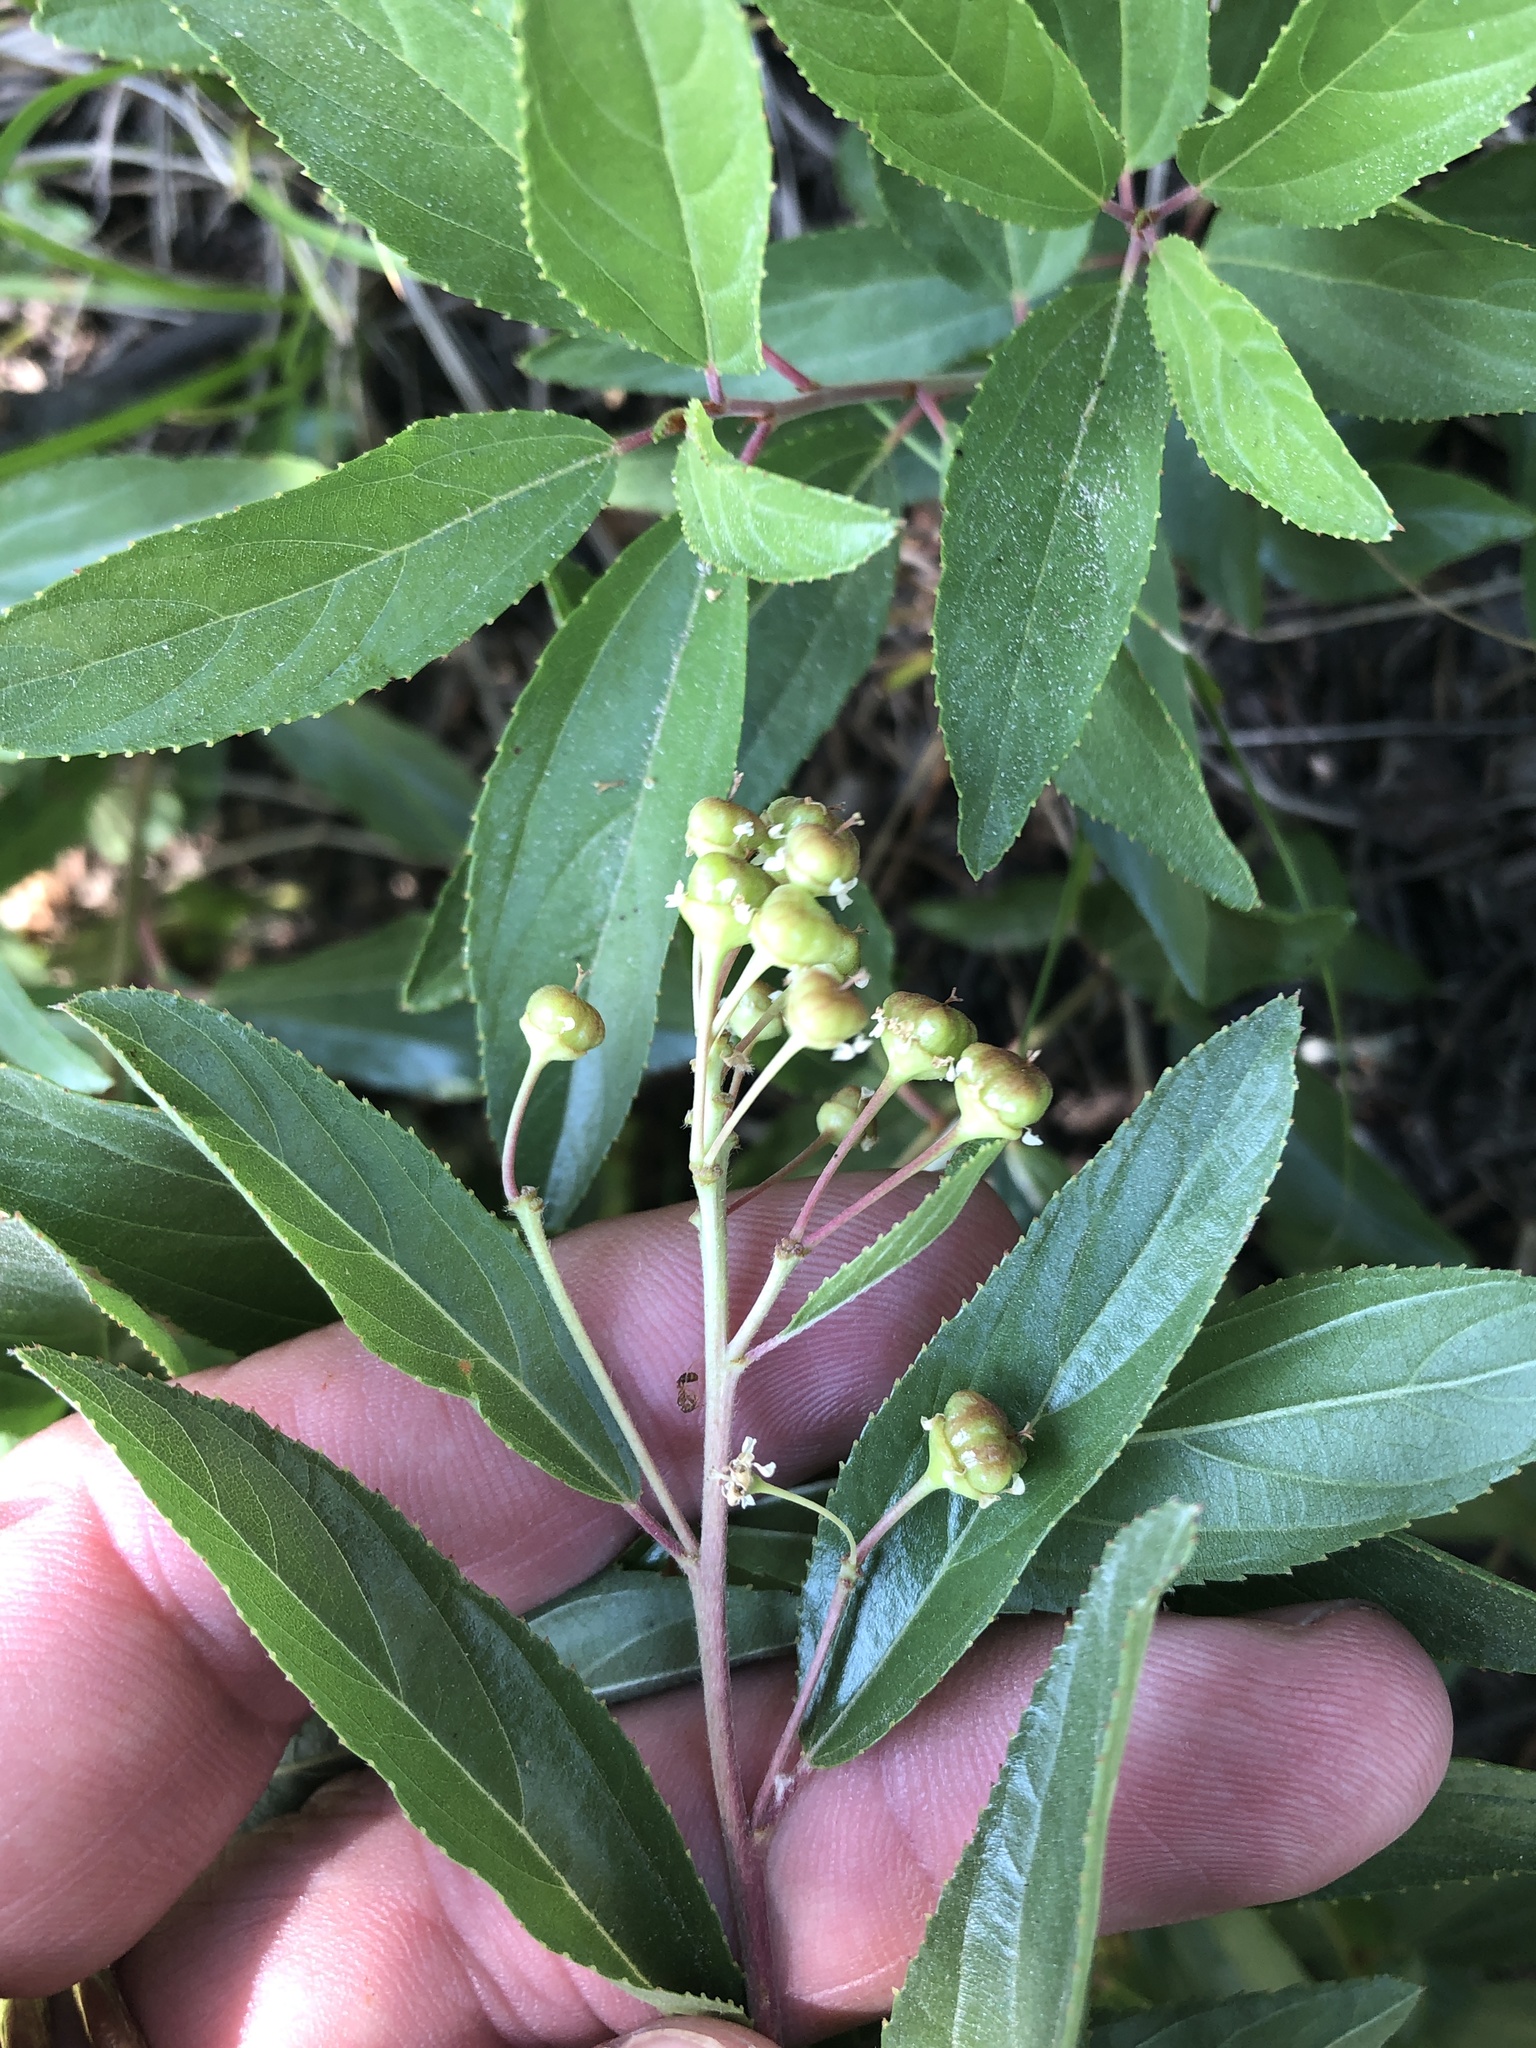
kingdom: Plantae
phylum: Tracheophyta
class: Magnoliopsida
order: Rosales
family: Rhamnaceae
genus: Ceanothus
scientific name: Ceanothus herbaceus
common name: Inland ceanothus
